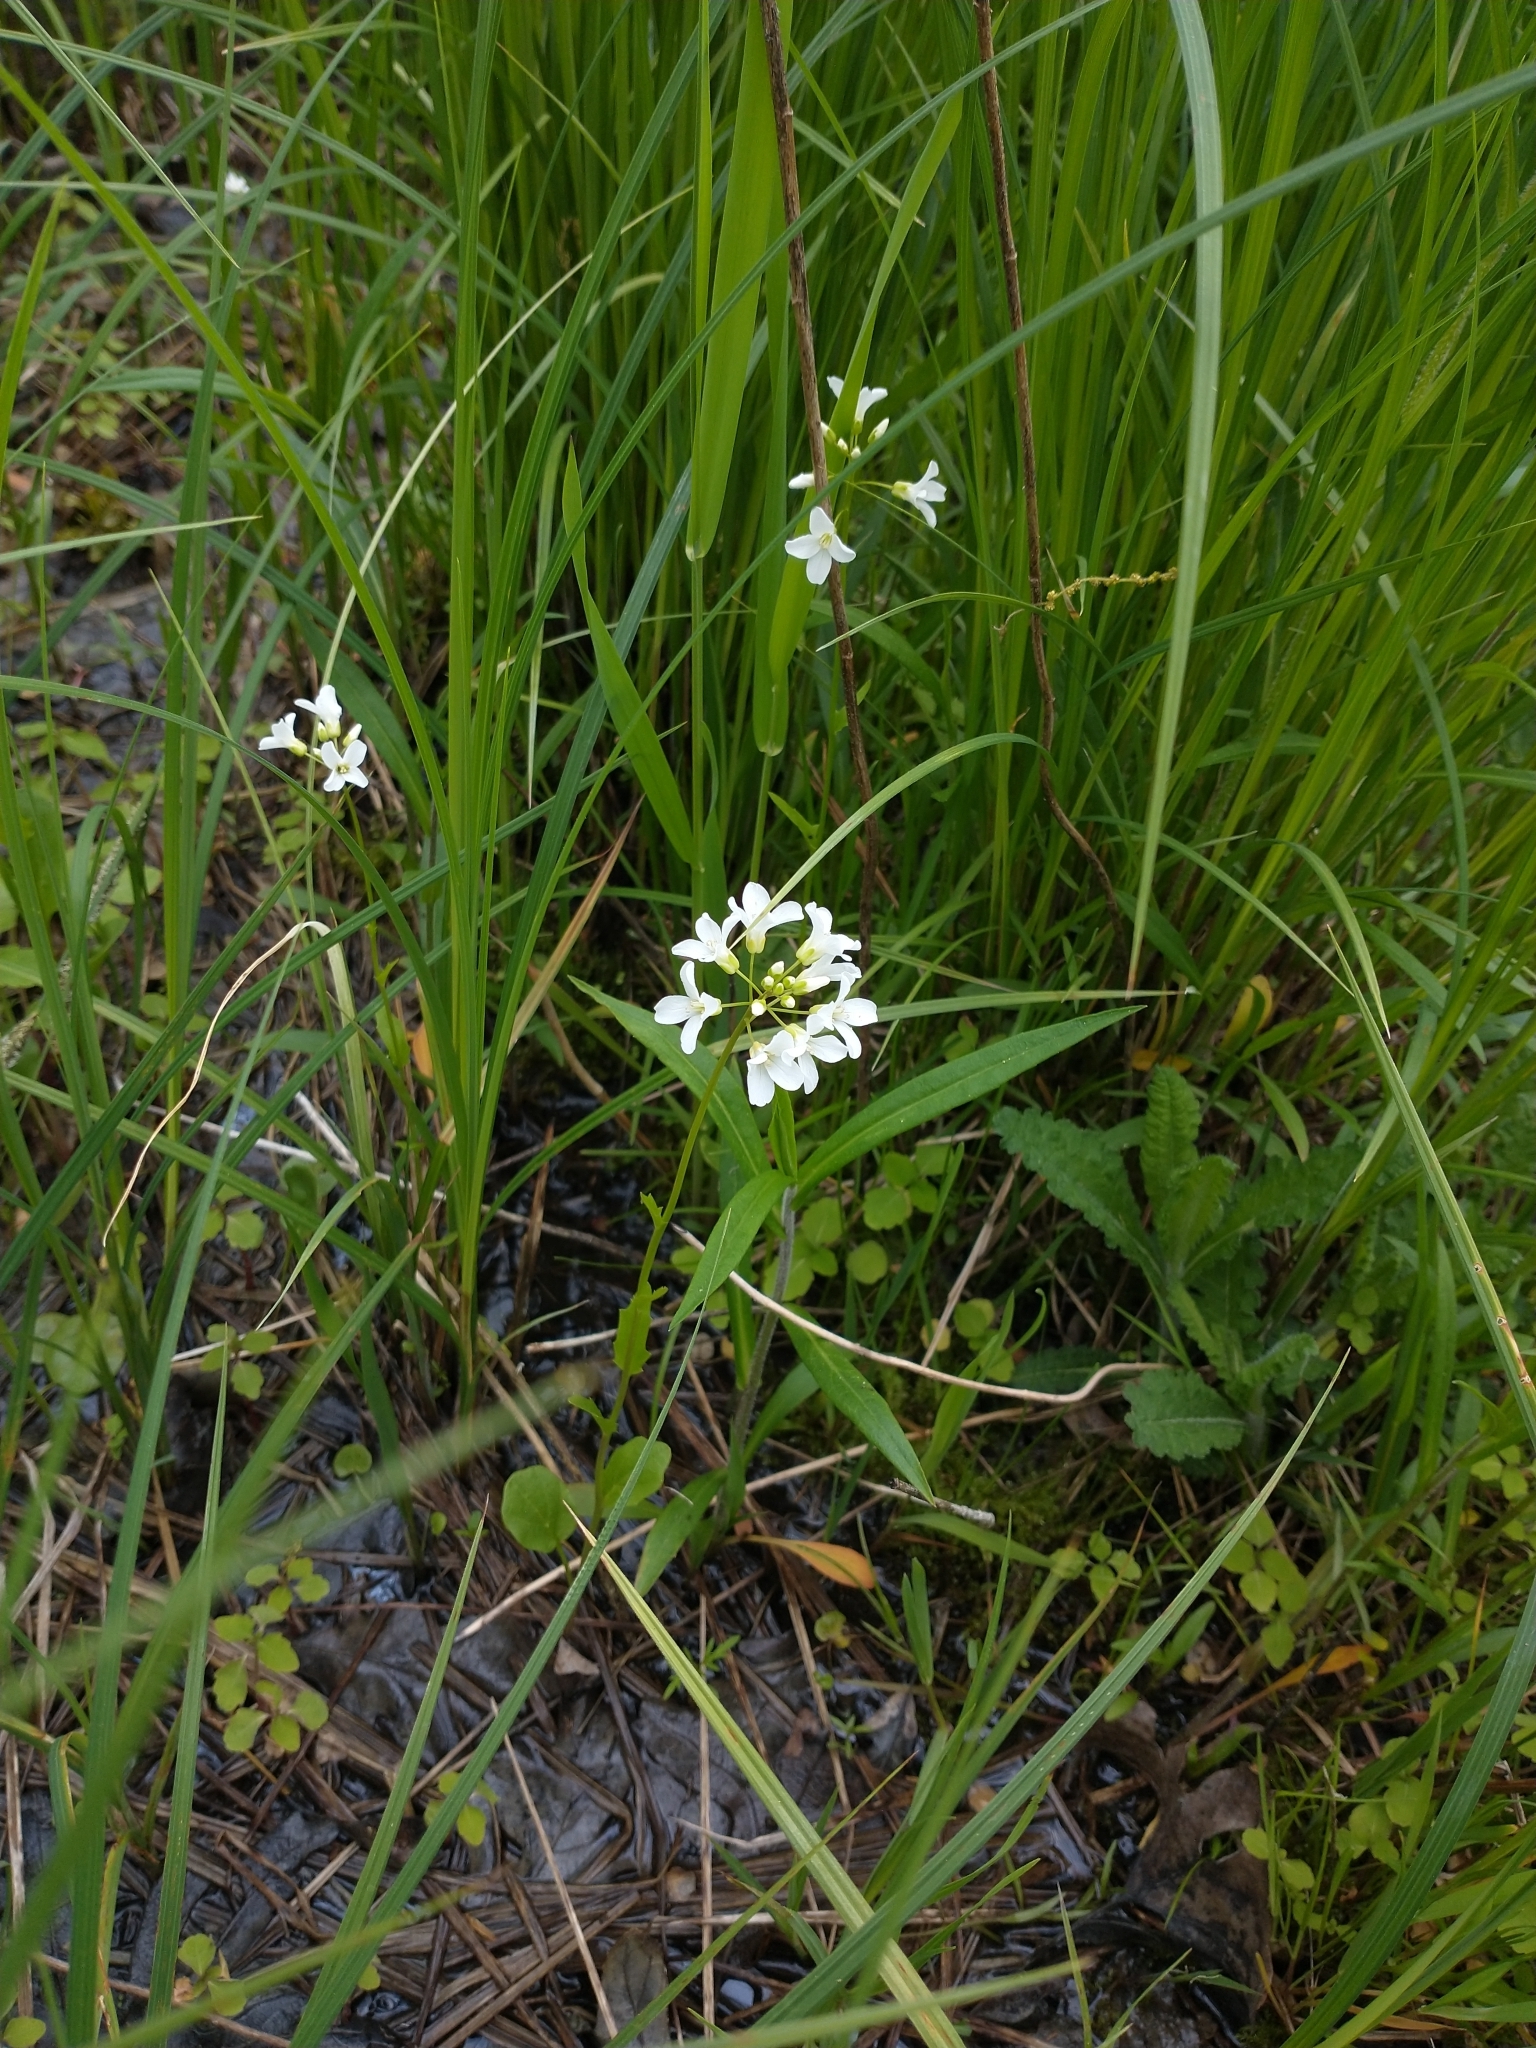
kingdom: Plantae
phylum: Tracheophyta
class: Magnoliopsida
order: Brassicales
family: Brassicaceae
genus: Cardamine
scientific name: Cardamine bulbosa
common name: Spring cress
